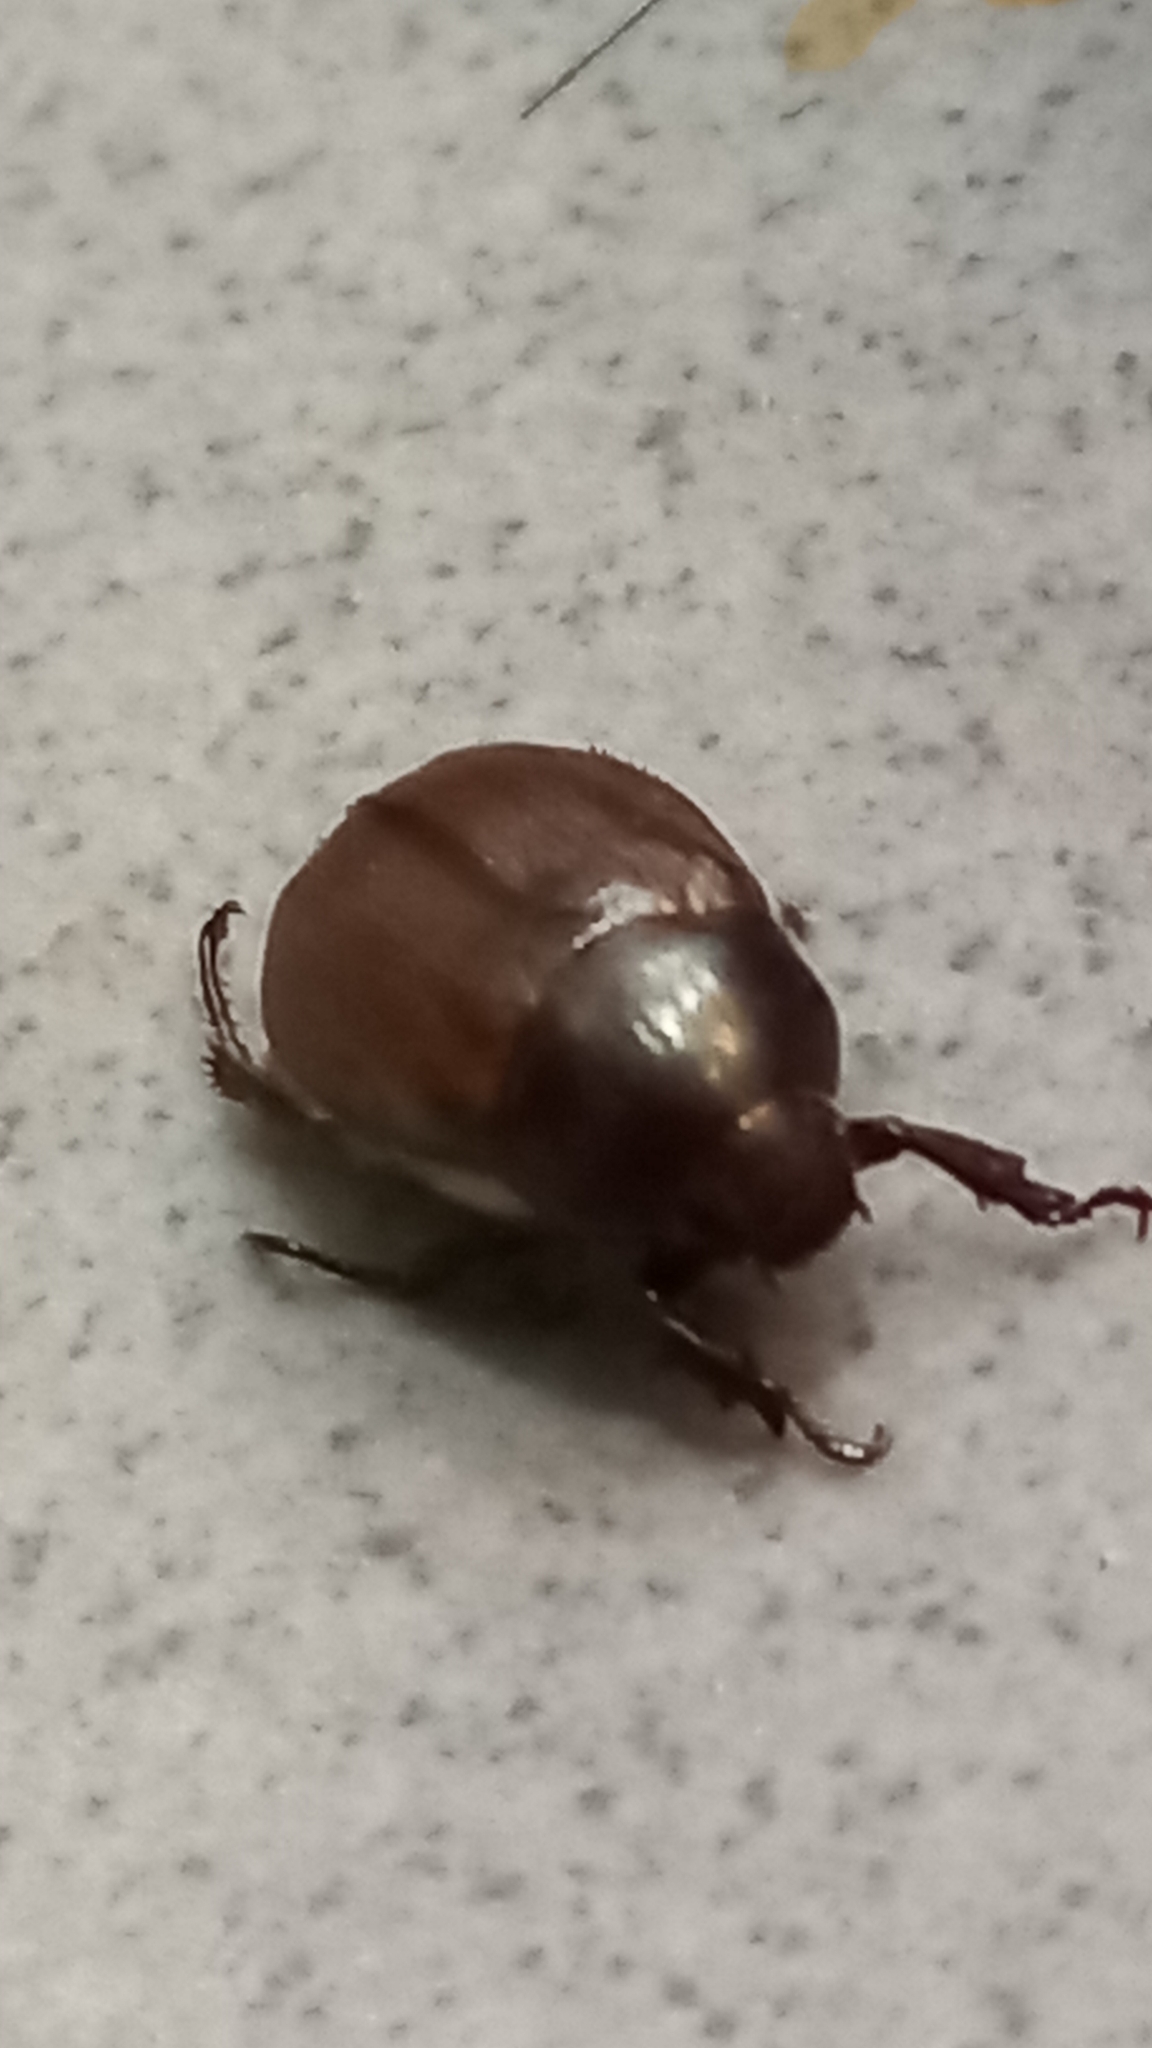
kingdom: Animalia
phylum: Arthropoda
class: Insecta
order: Coleoptera
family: Scarabaeidae
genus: Anomala
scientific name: Anomala obsoleta
